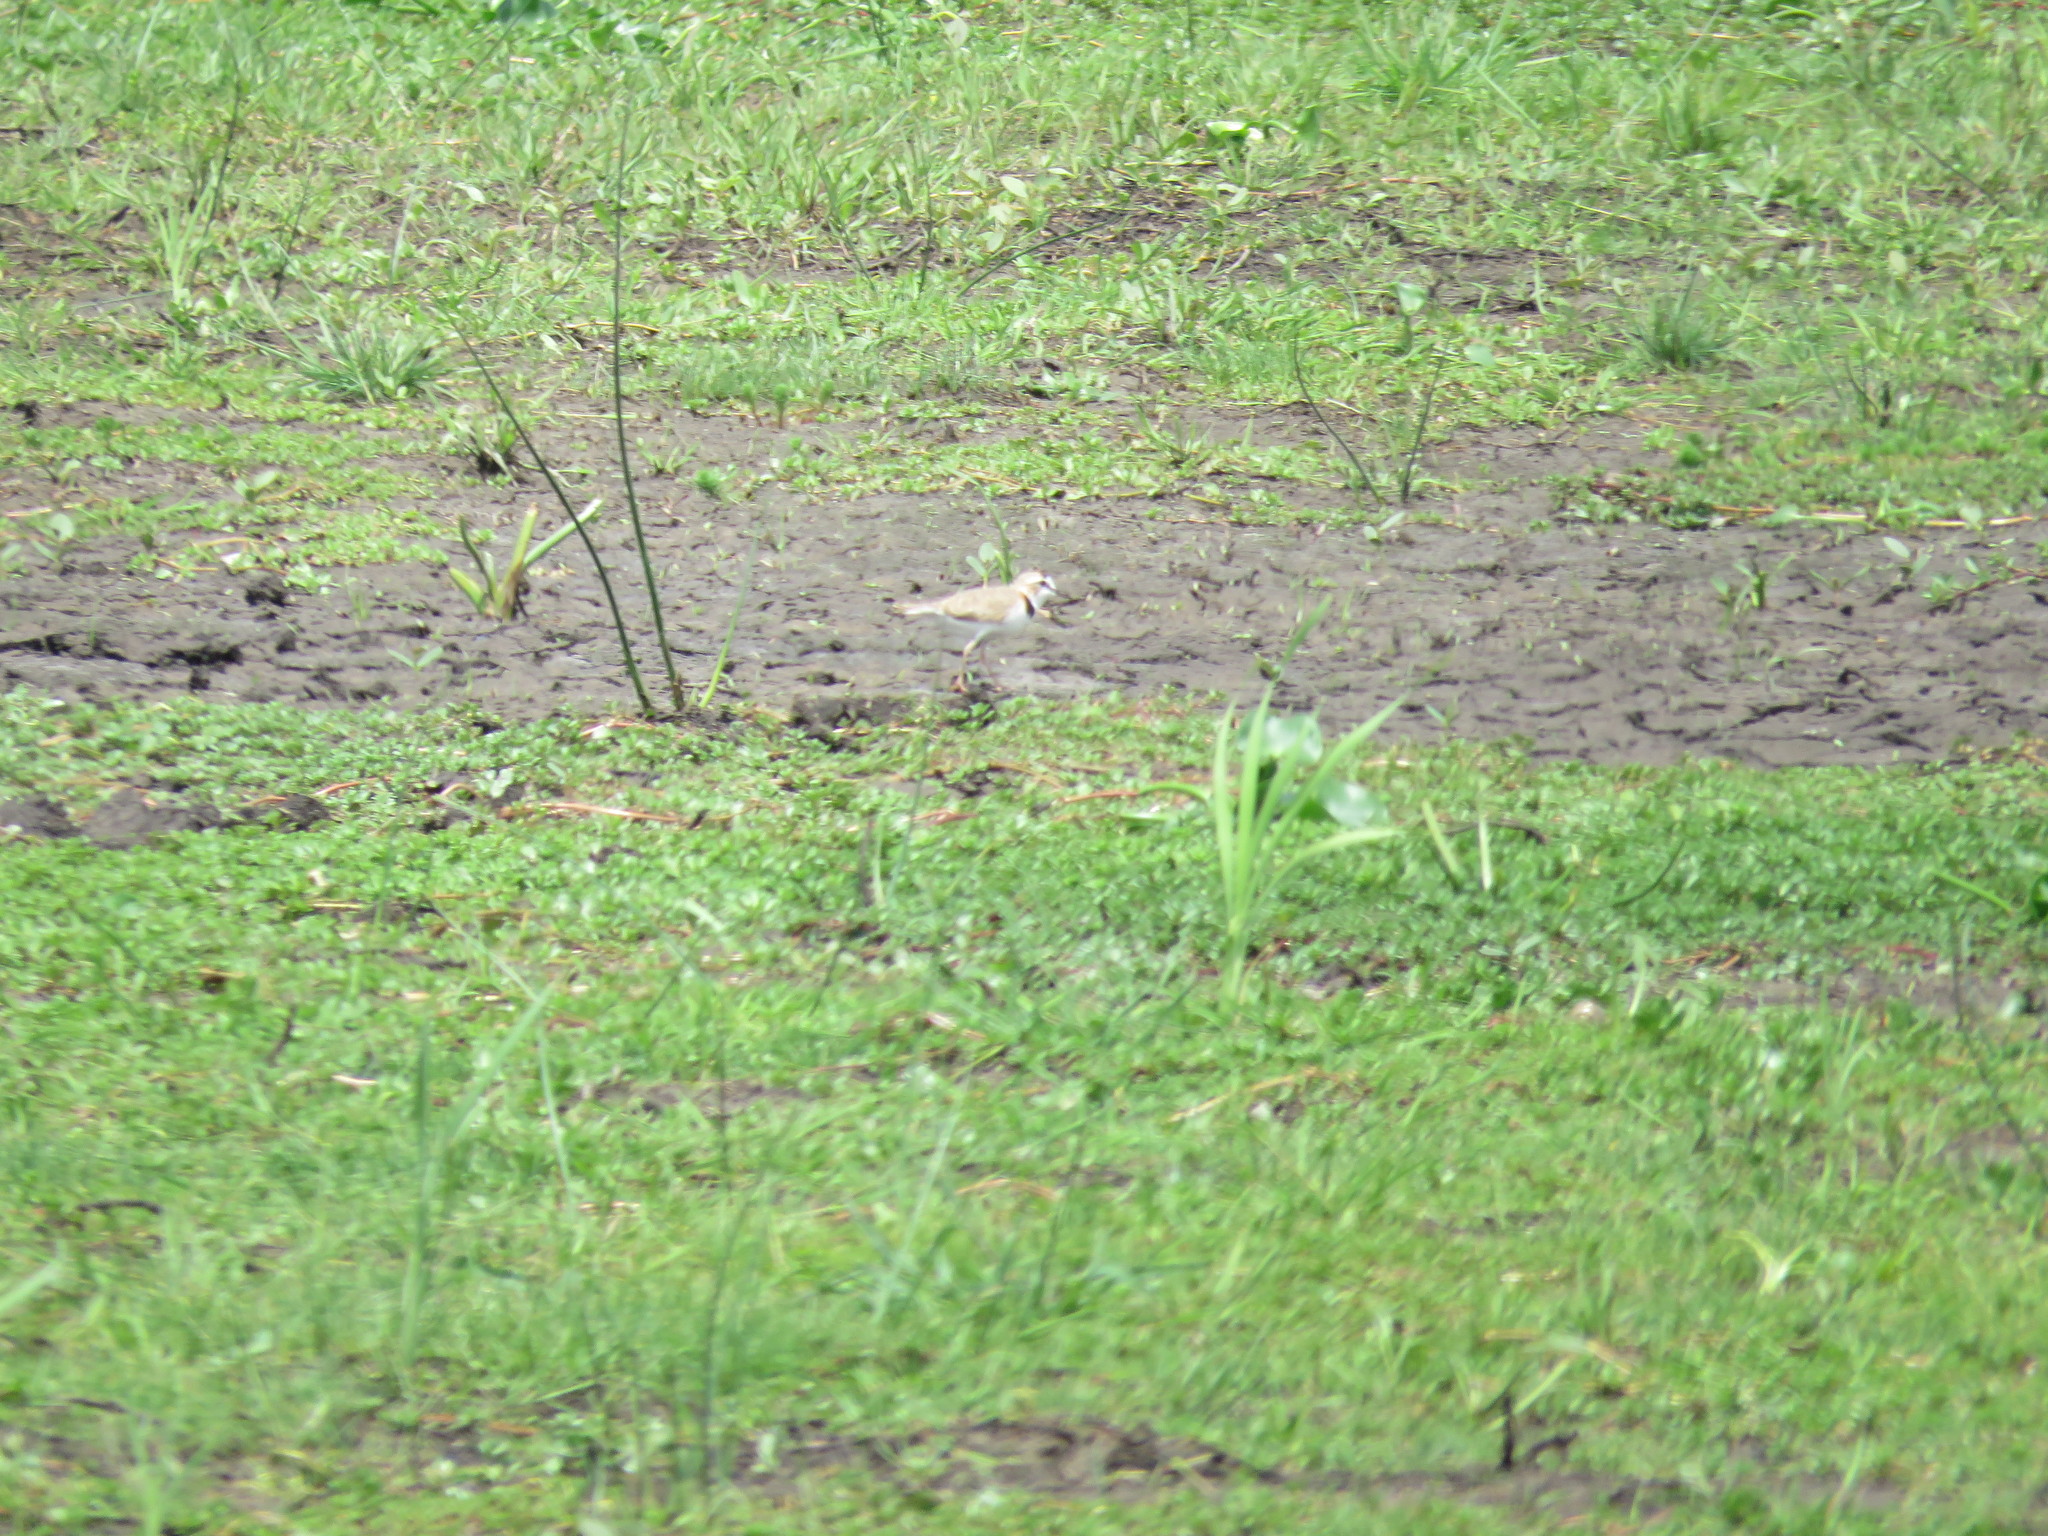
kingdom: Animalia
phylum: Chordata
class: Aves
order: Charadriiformes
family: Charadriidae
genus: Anarhynchus
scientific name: Anarhynchus
